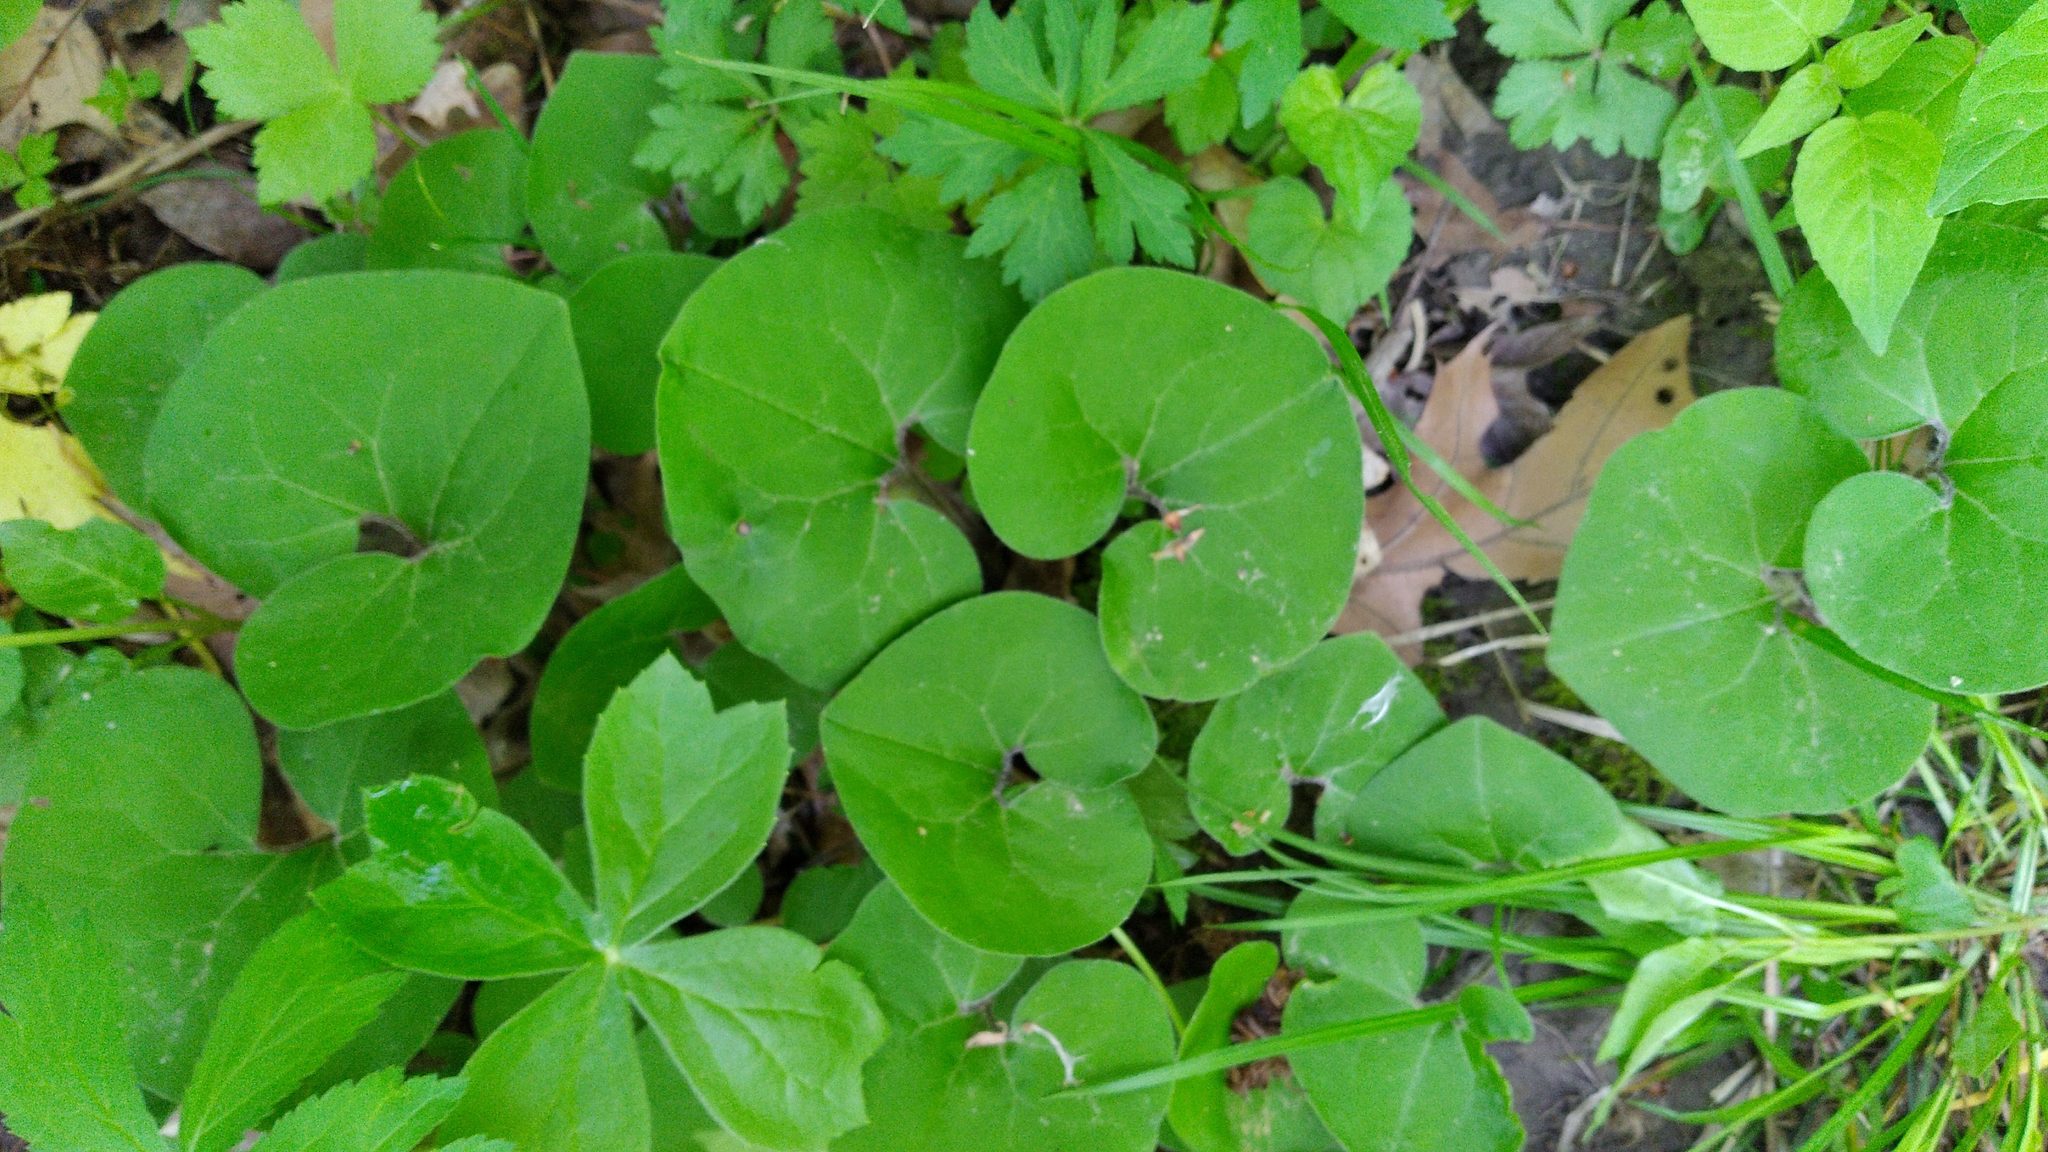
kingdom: Plantae
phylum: Tracheophyta
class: Magnoliopsida
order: Piperales
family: Aristolochiaceae
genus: Asarum
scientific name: Asarum canadense
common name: Wild ginger
